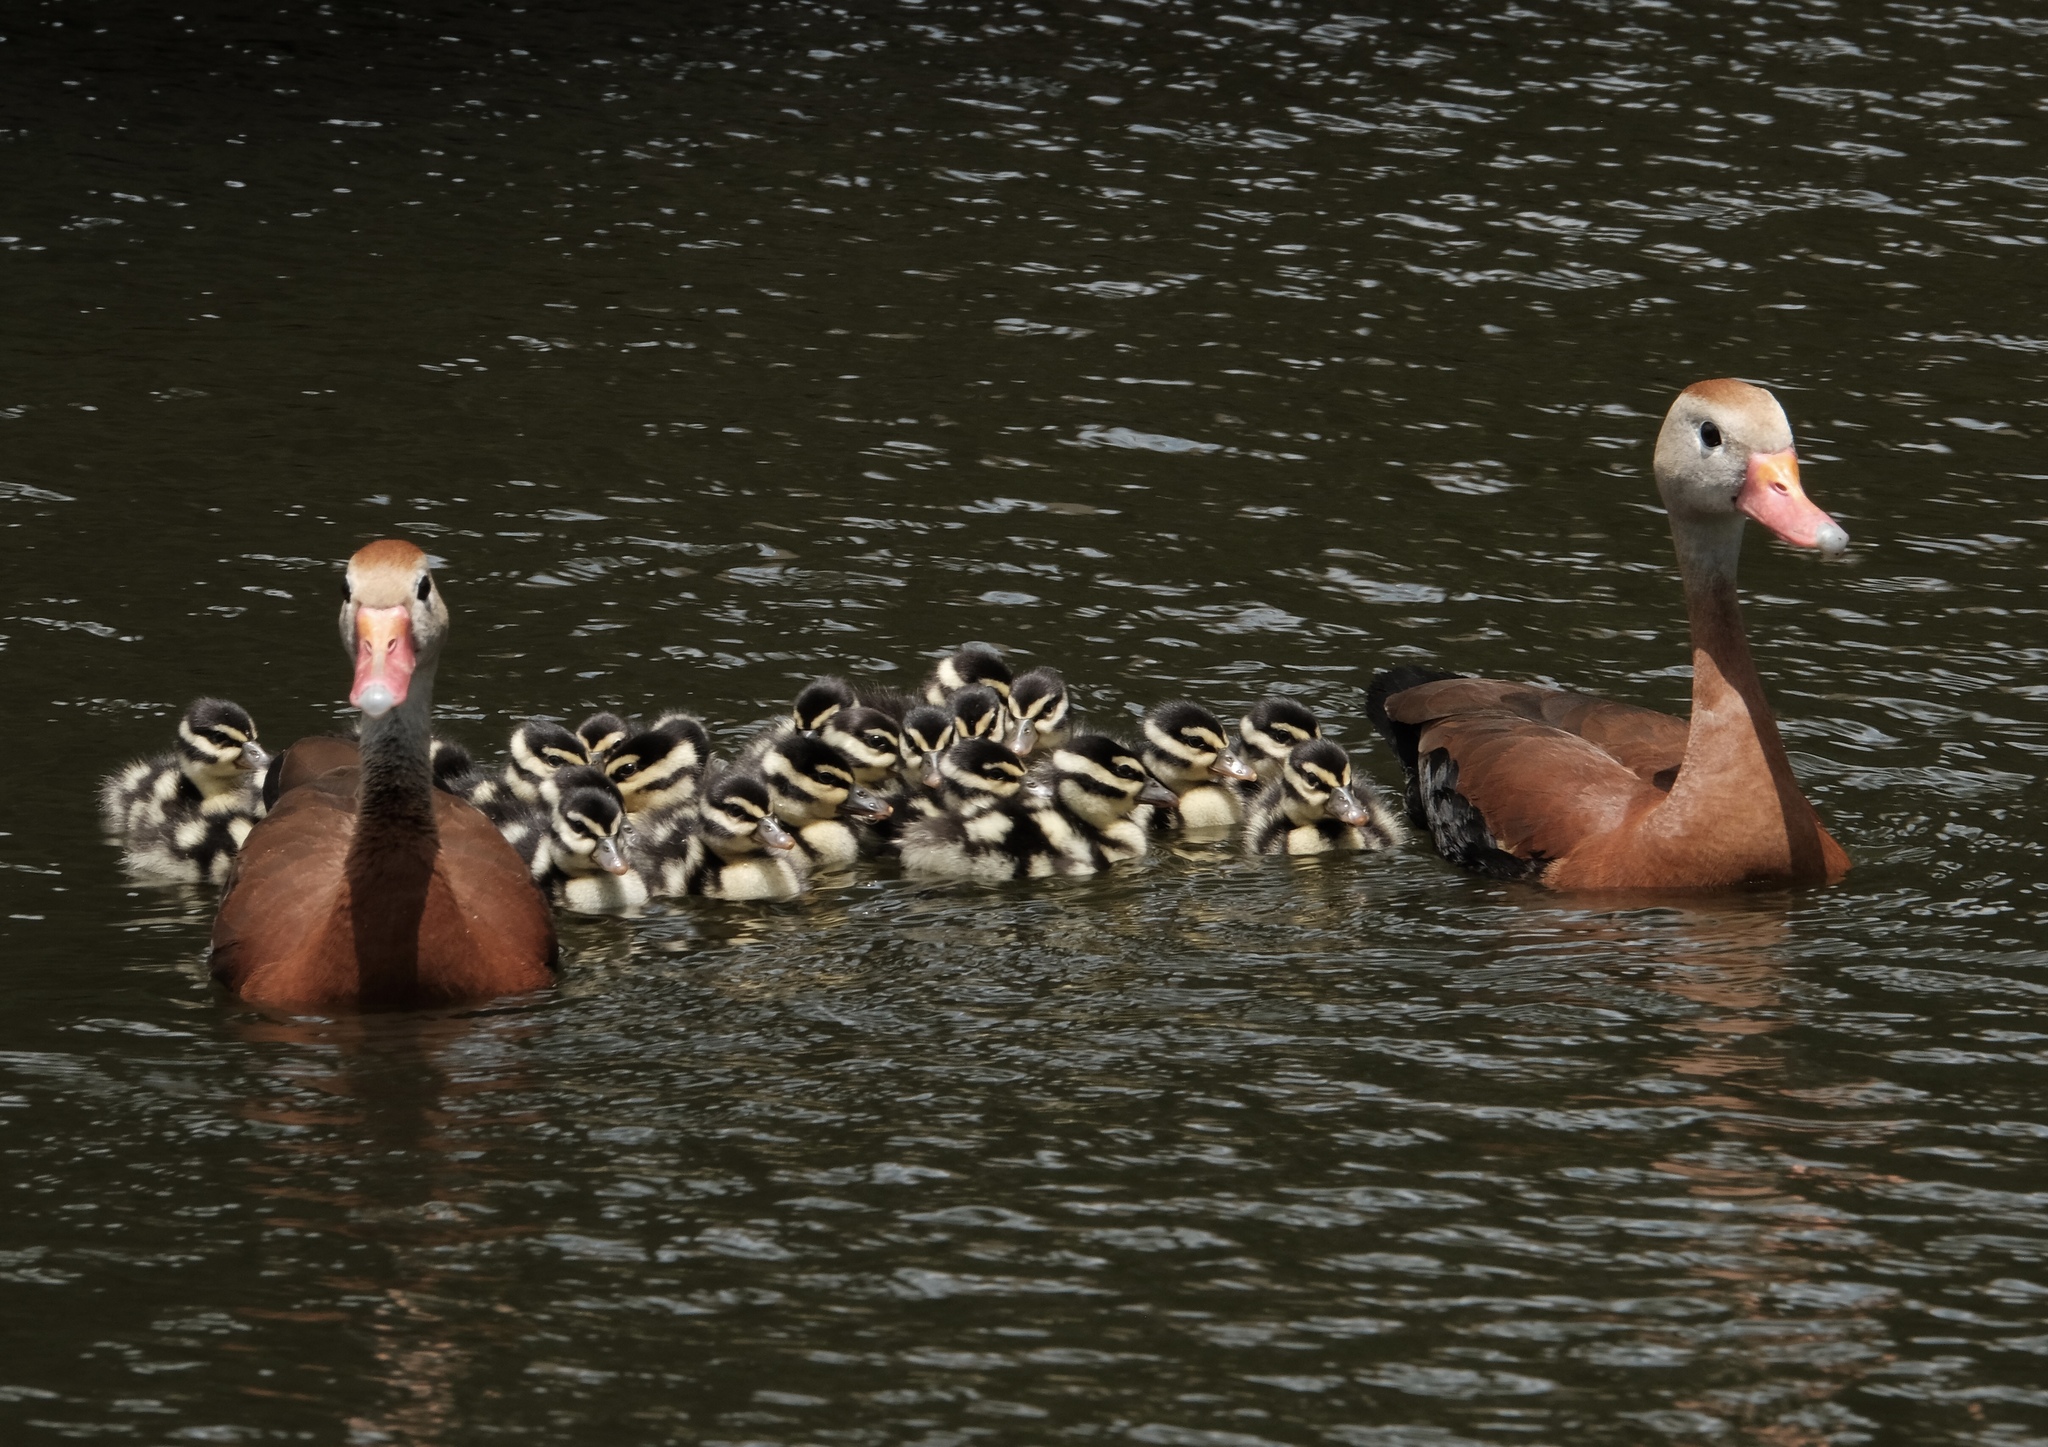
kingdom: Animalia
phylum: Chordata
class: Aves
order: Anseriformes
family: Anatidae
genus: Dendrocygna
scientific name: Dendrocygna autumnalis
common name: Black-bellied whistling duck
